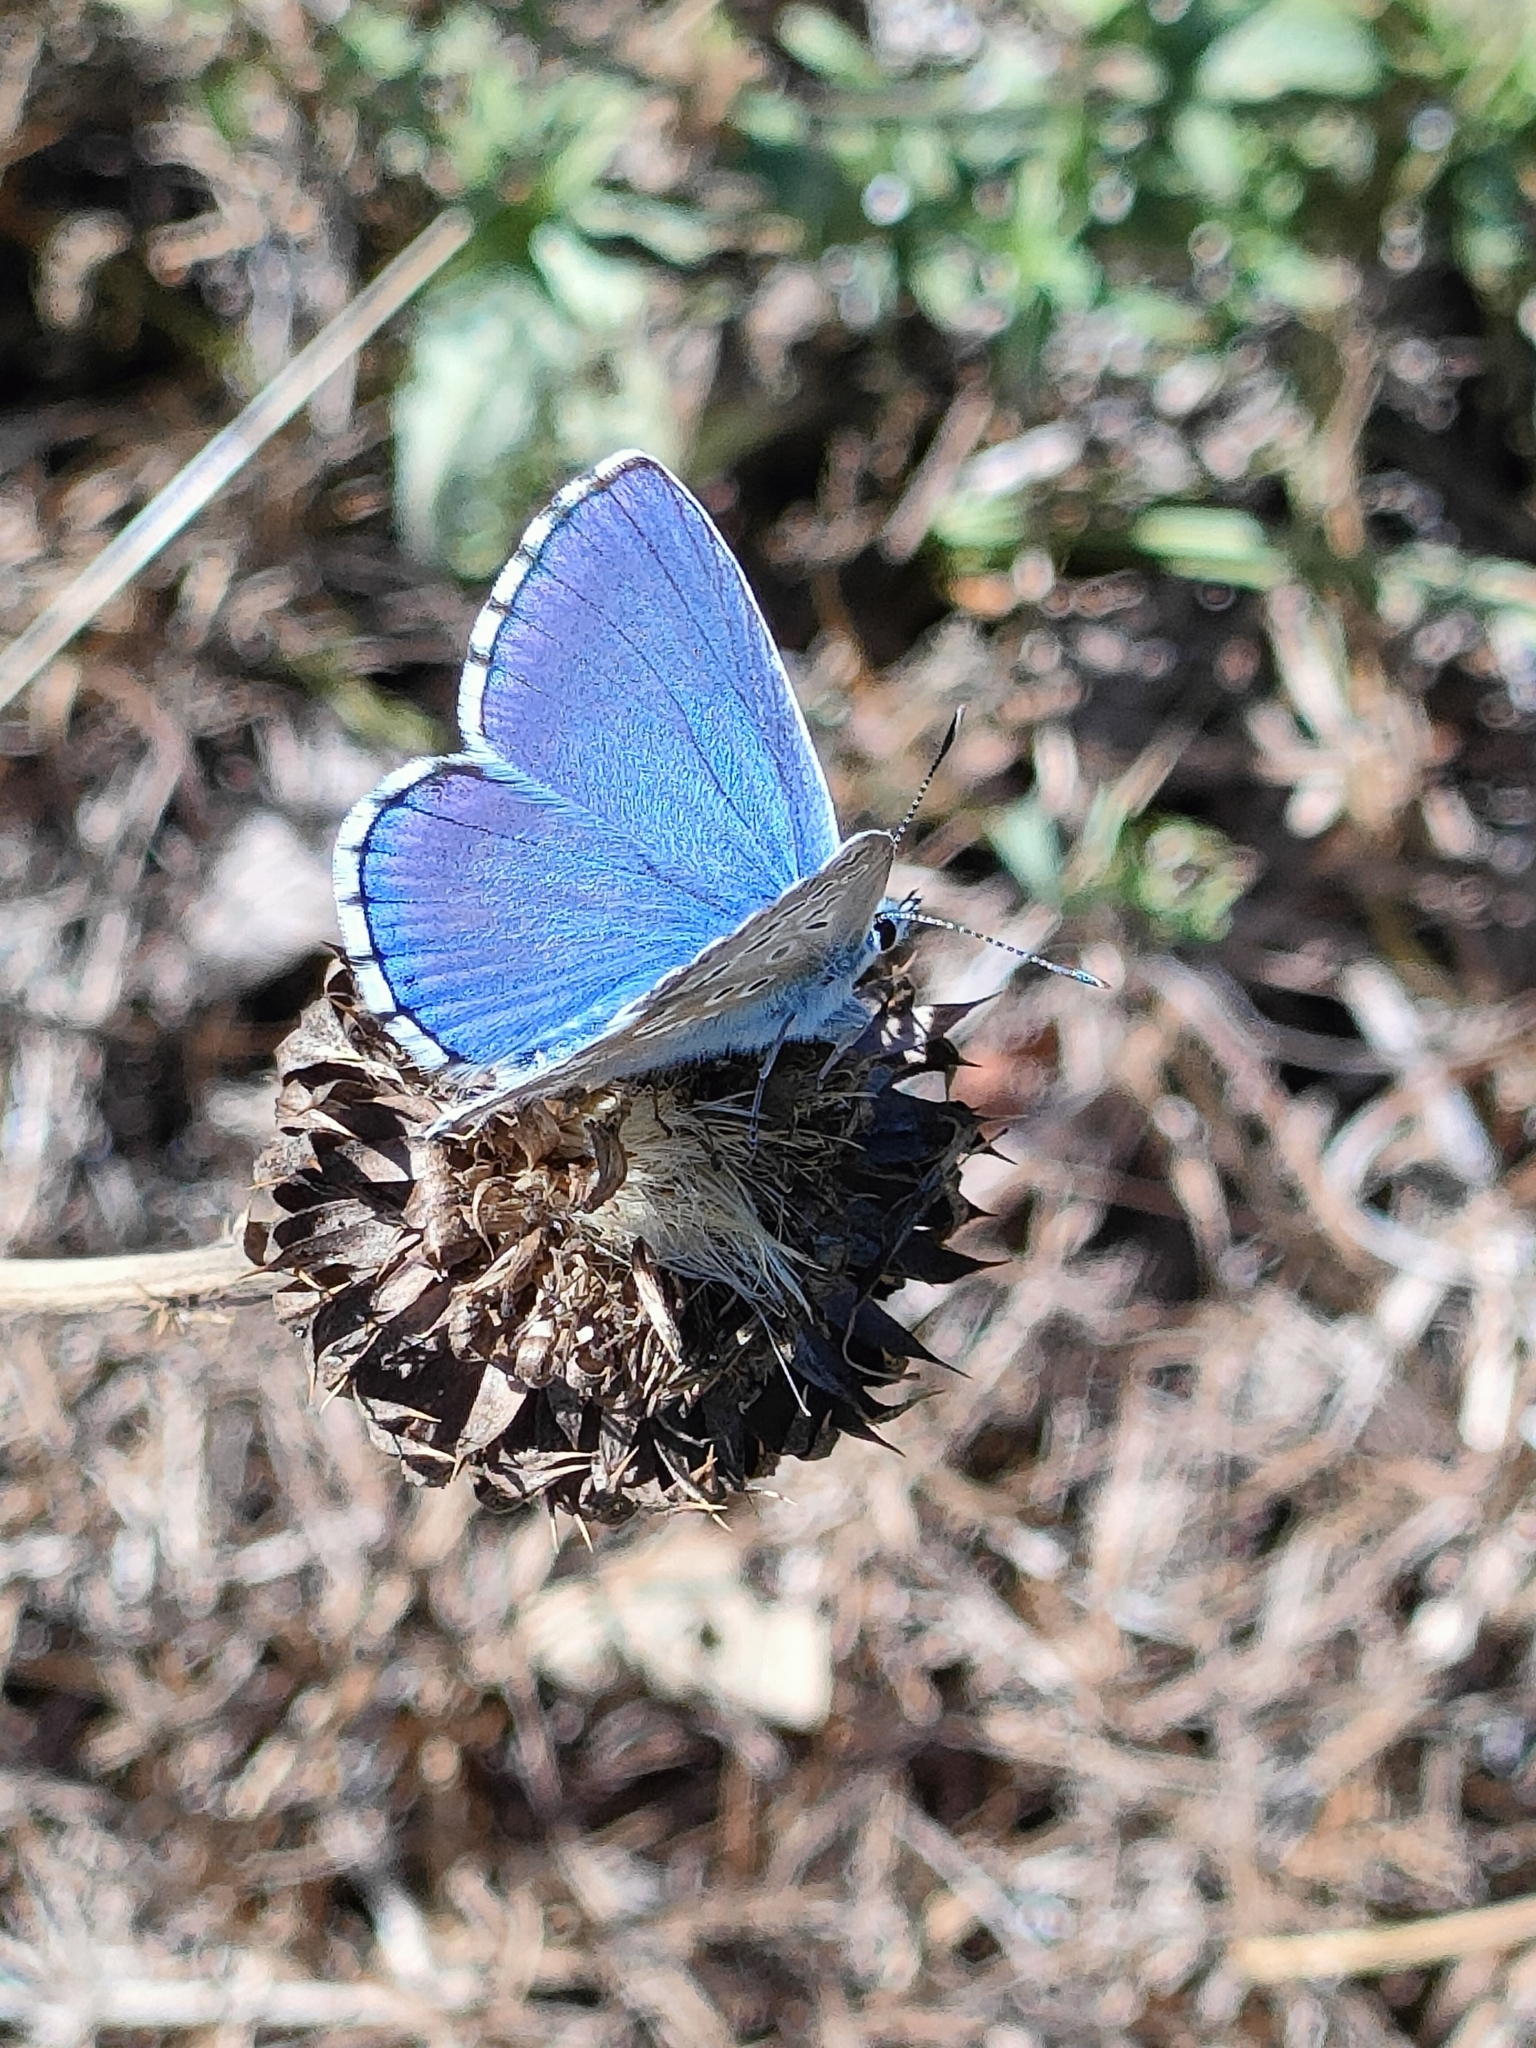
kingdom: Animalia
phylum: Arthropoda
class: Insecta
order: Lepidoptera
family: Lycaenidae
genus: Lysandra
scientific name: Lysandra bellargus
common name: Adonis blue
